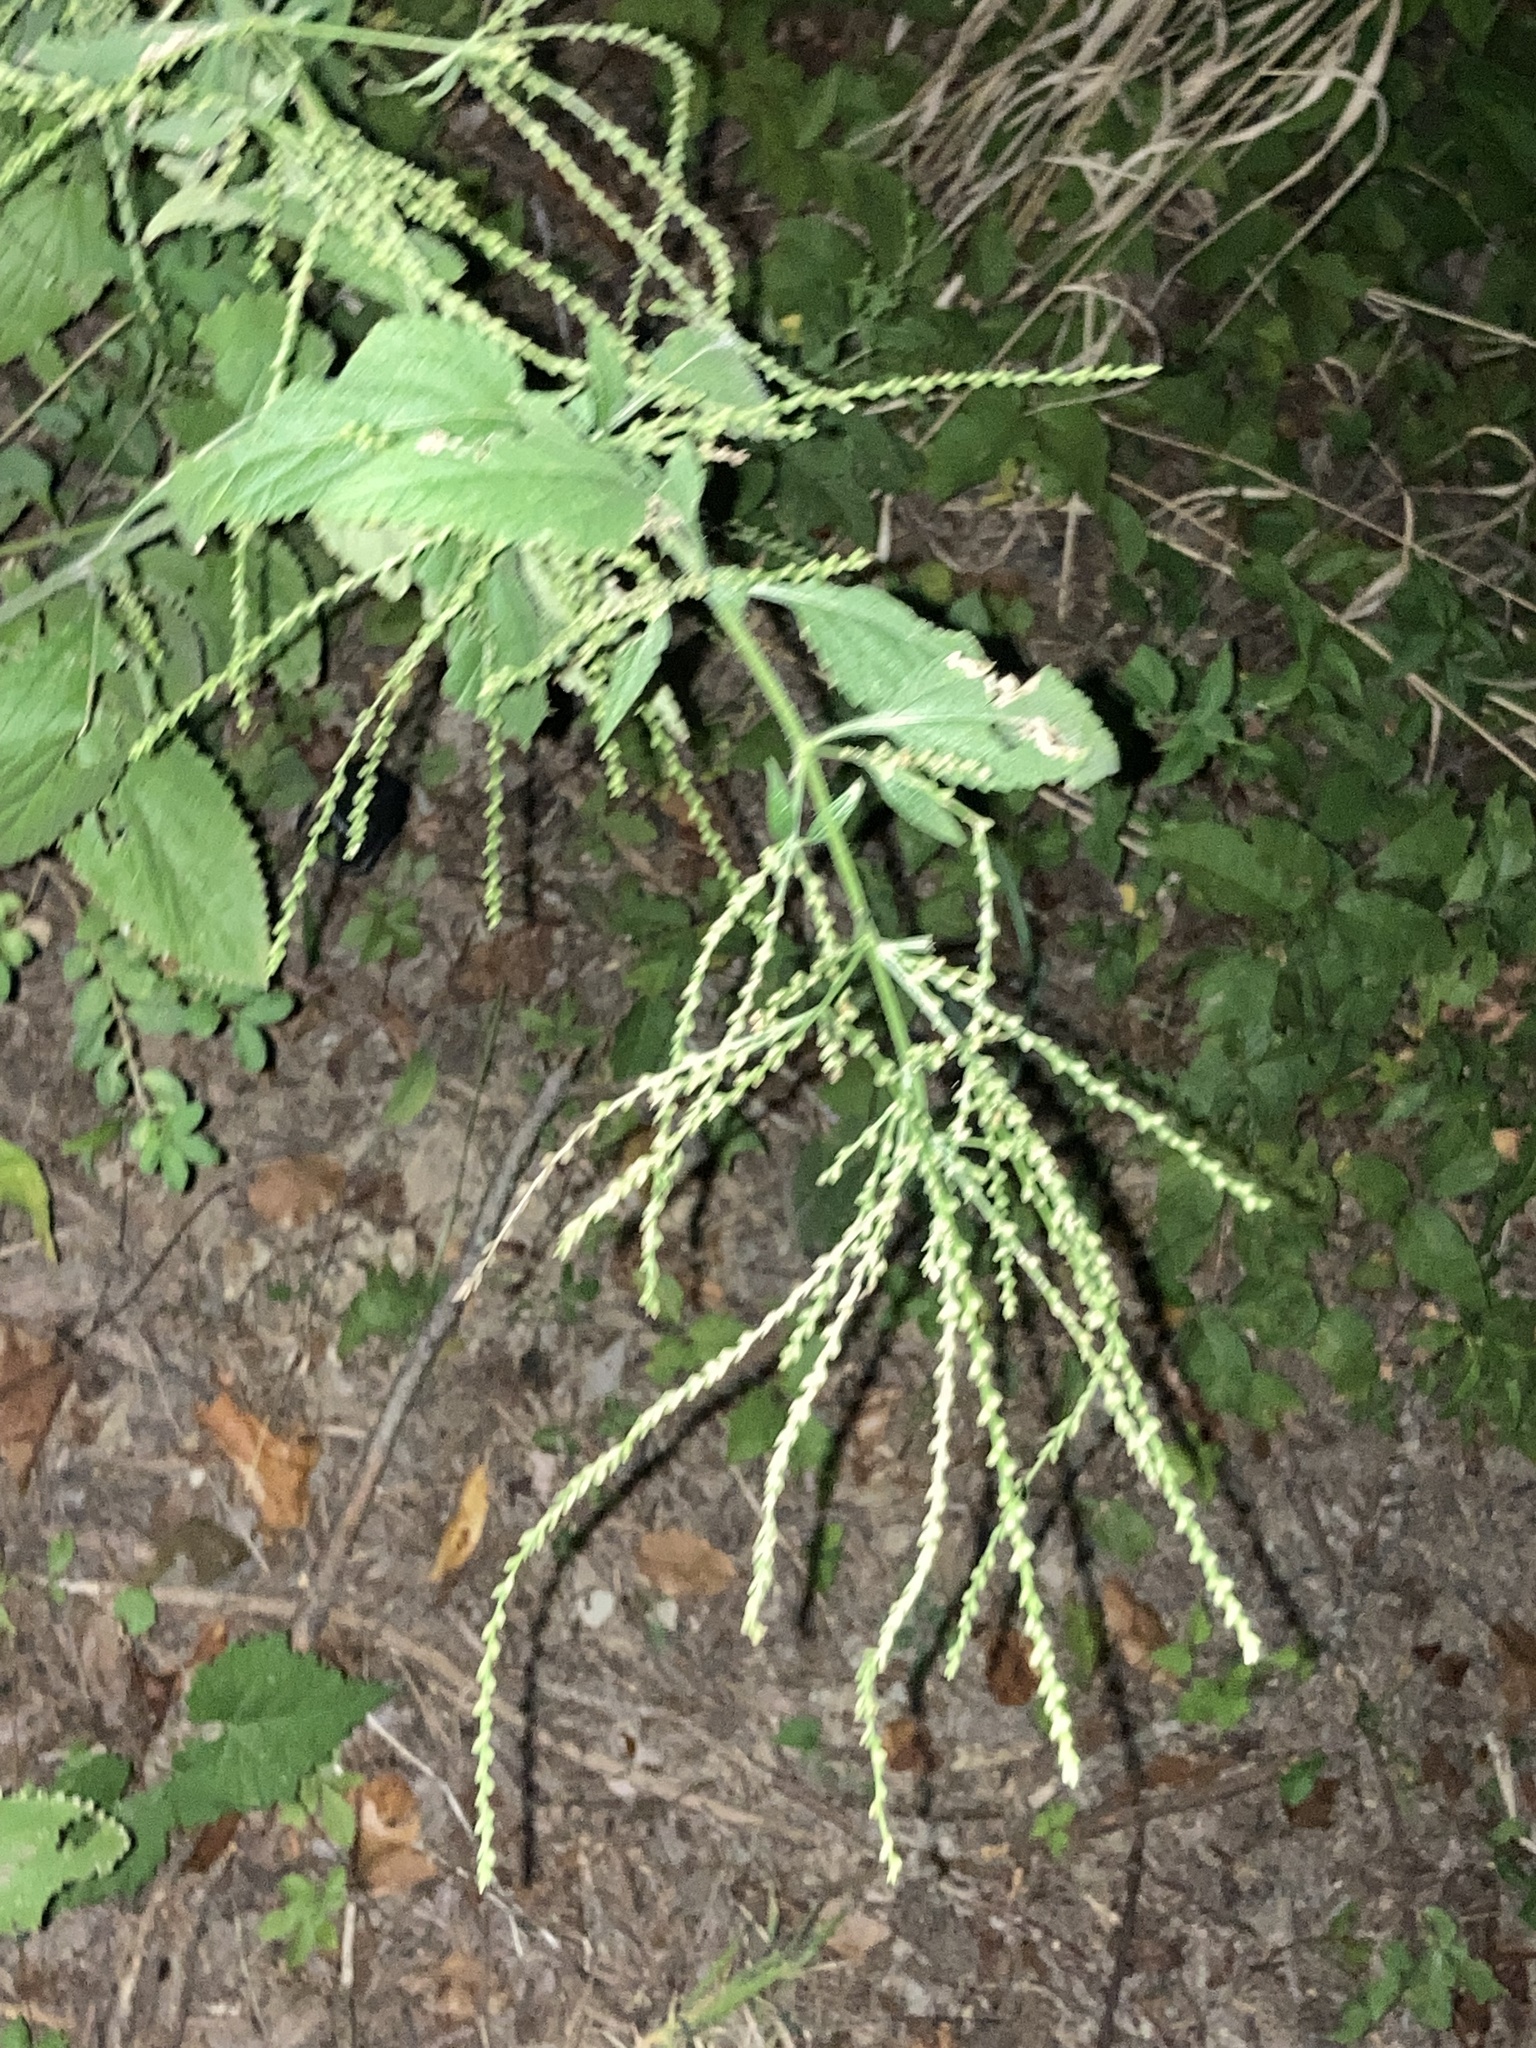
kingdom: Plantae
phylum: Tracheophyta
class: Magnoliopsida
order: Lamiales
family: Verbenaceae
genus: Verbena
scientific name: Verbena urticifolia
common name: Nettle-leaved vervain
